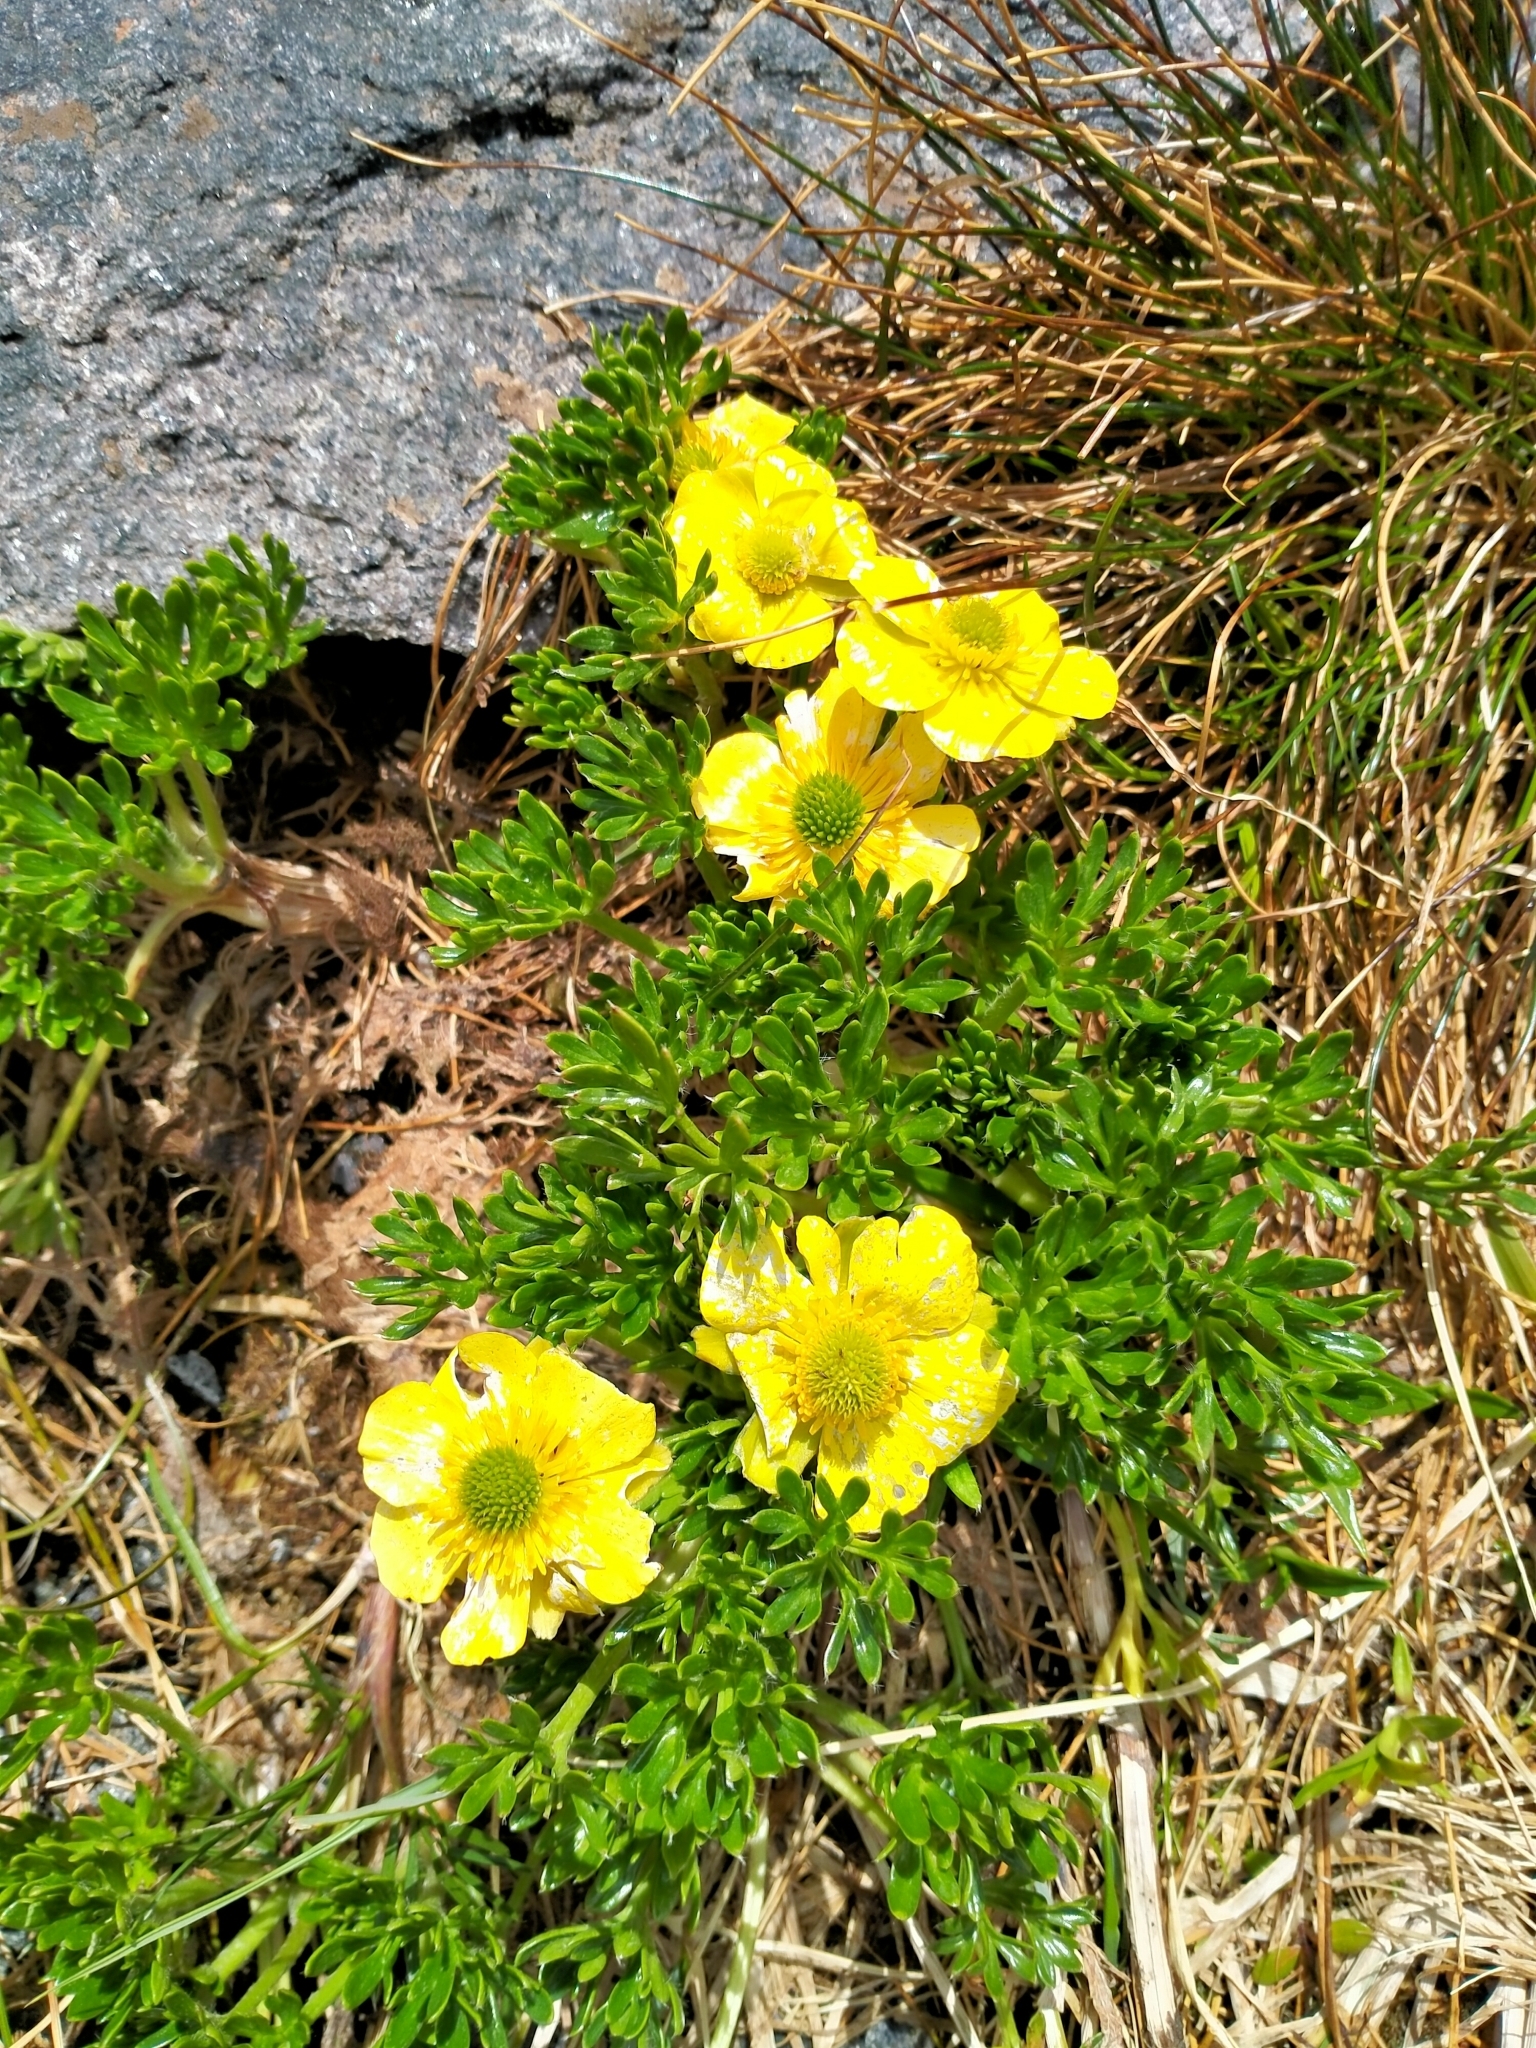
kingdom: Plantae
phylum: Tracheophyta
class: Magnoliopsida
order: Ranunculales
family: Ranunculaceae
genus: Ranunculus
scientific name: Ranunculus sericophyllus
